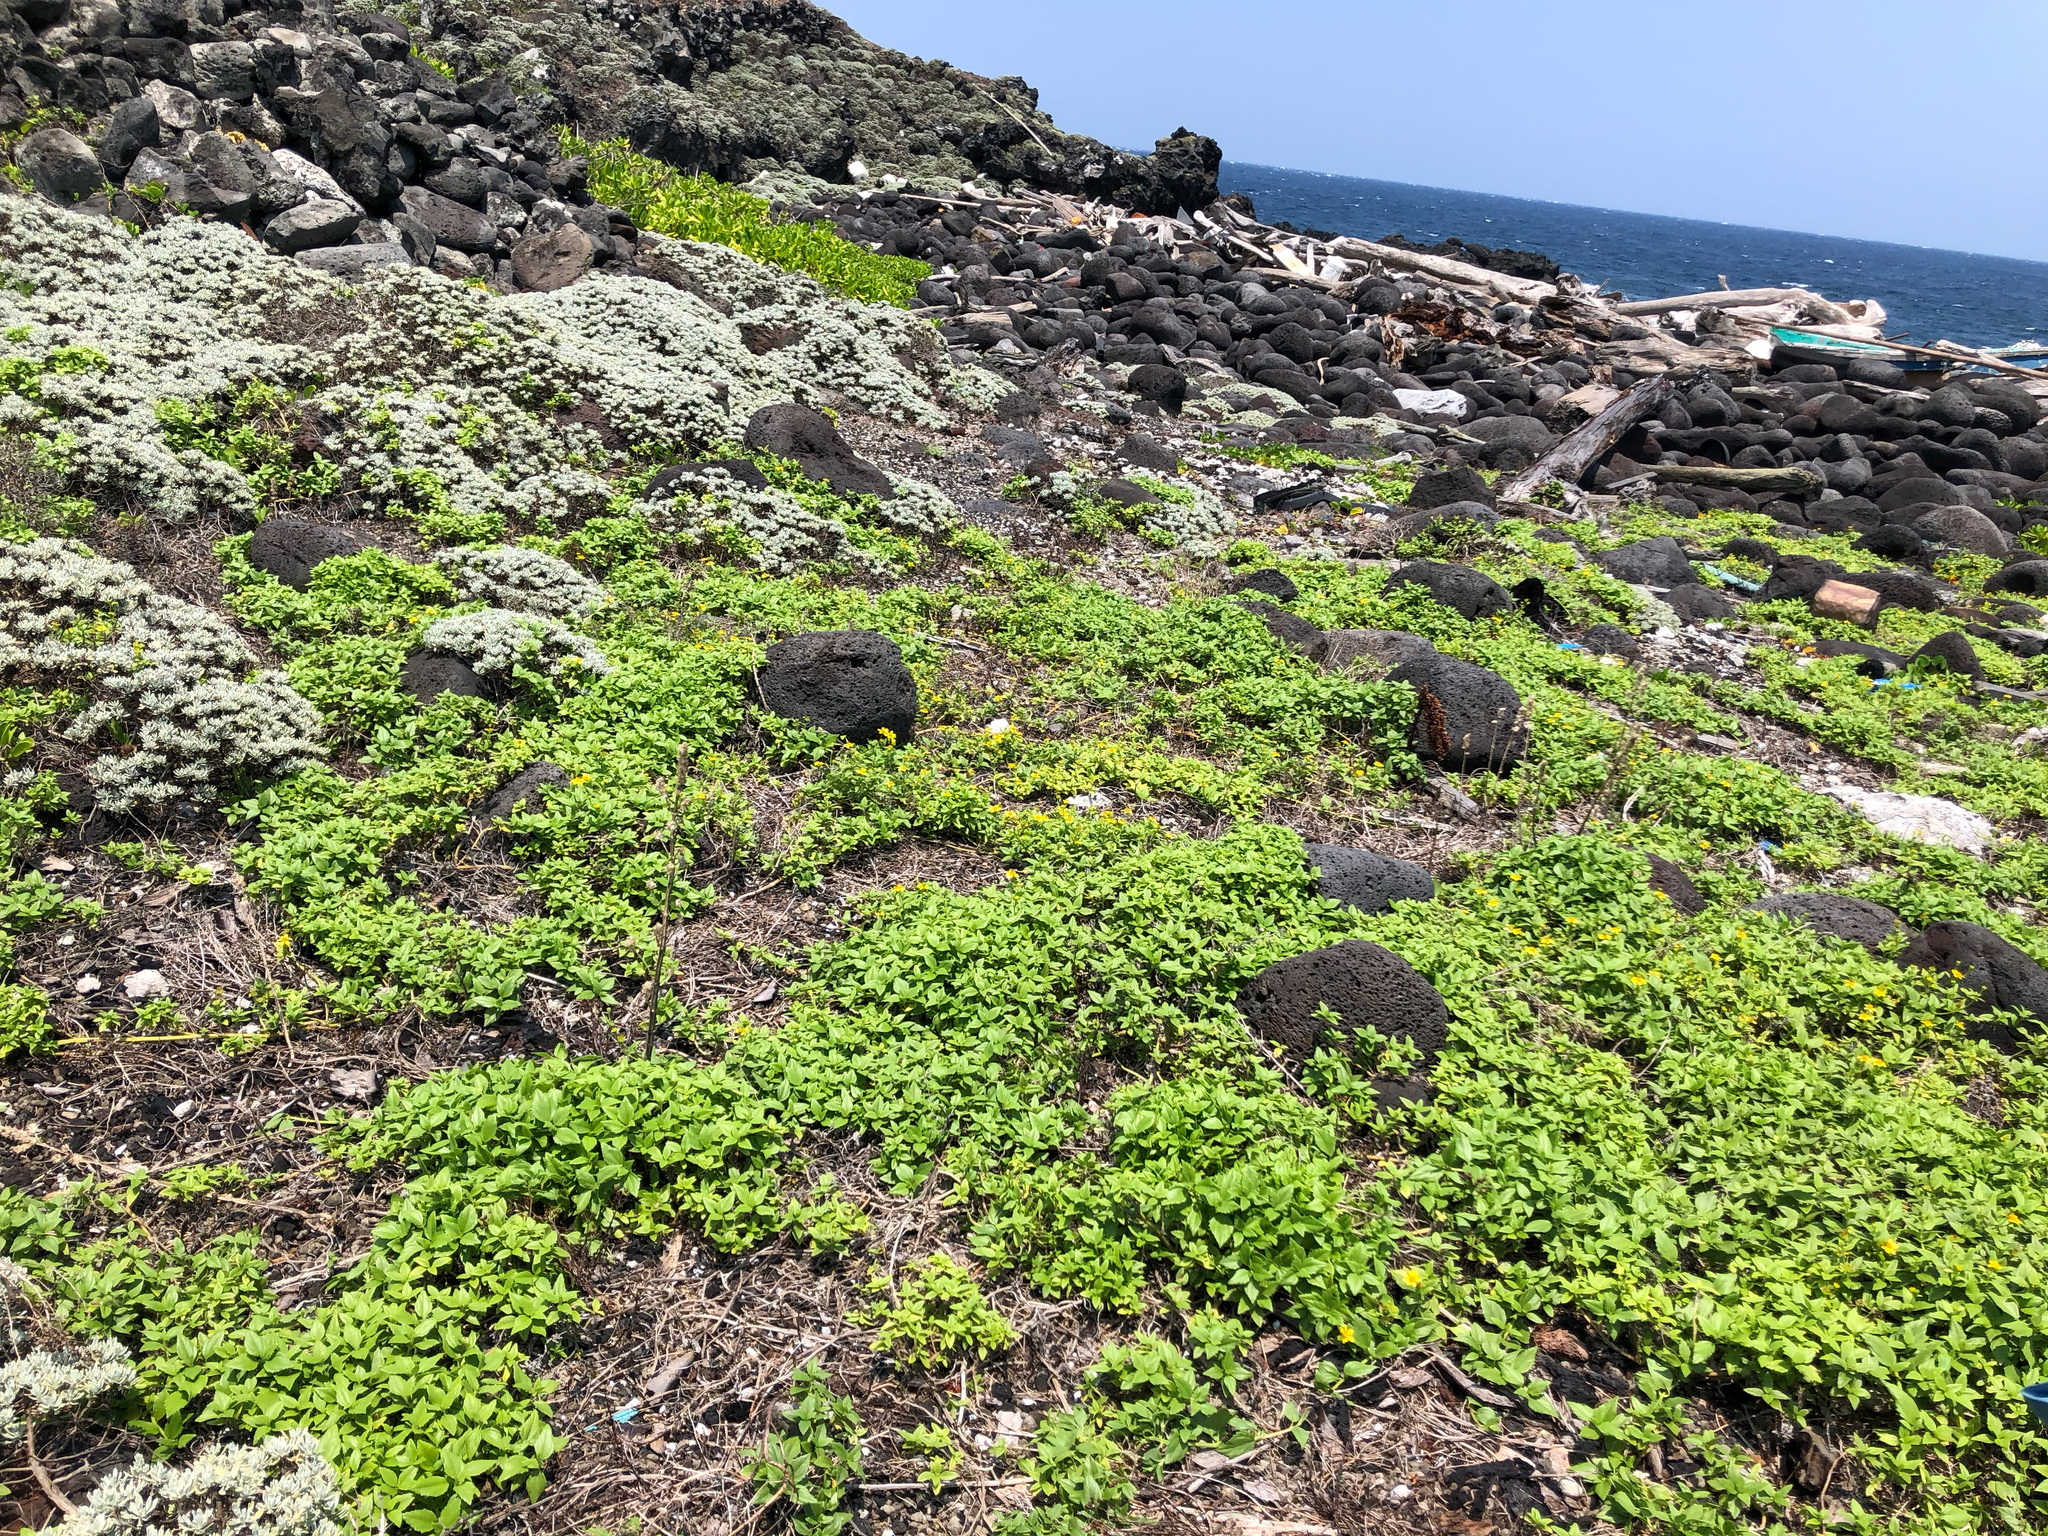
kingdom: Plantae
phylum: Tracheophyta
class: Magnoliopsida
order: Asterales
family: Asteraceae
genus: Melanthera
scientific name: Melanthera prostrata
